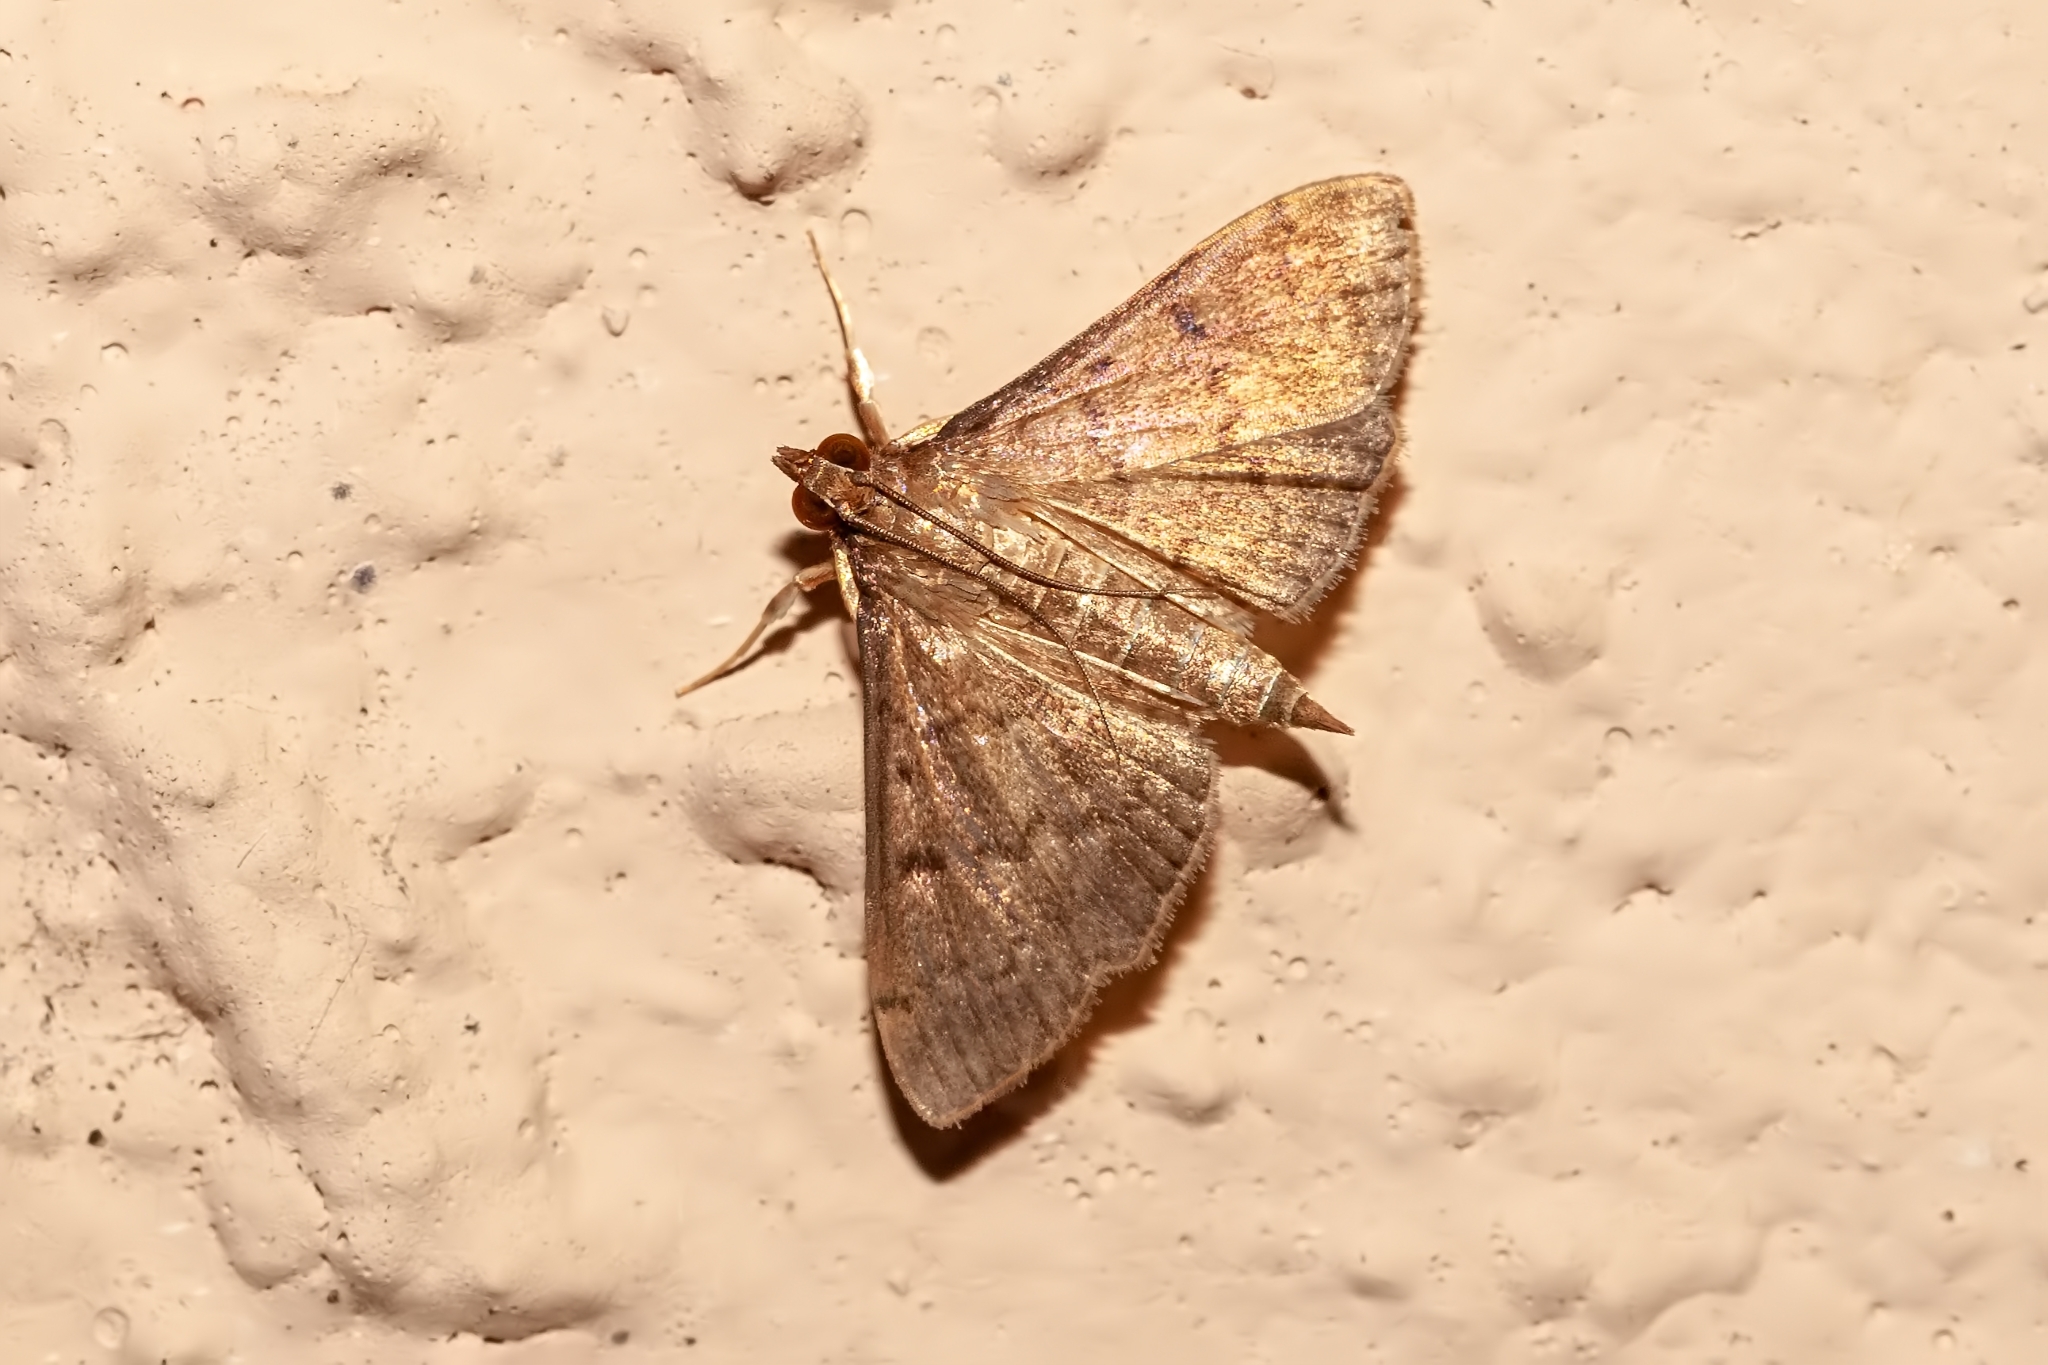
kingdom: Animalia
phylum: Arthropoda
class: Insecta
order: Lepidoptera
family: Crambidae
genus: Herpetogramma
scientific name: Herpetogramma phaeopteralis
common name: Dusky herpetogramma moth
